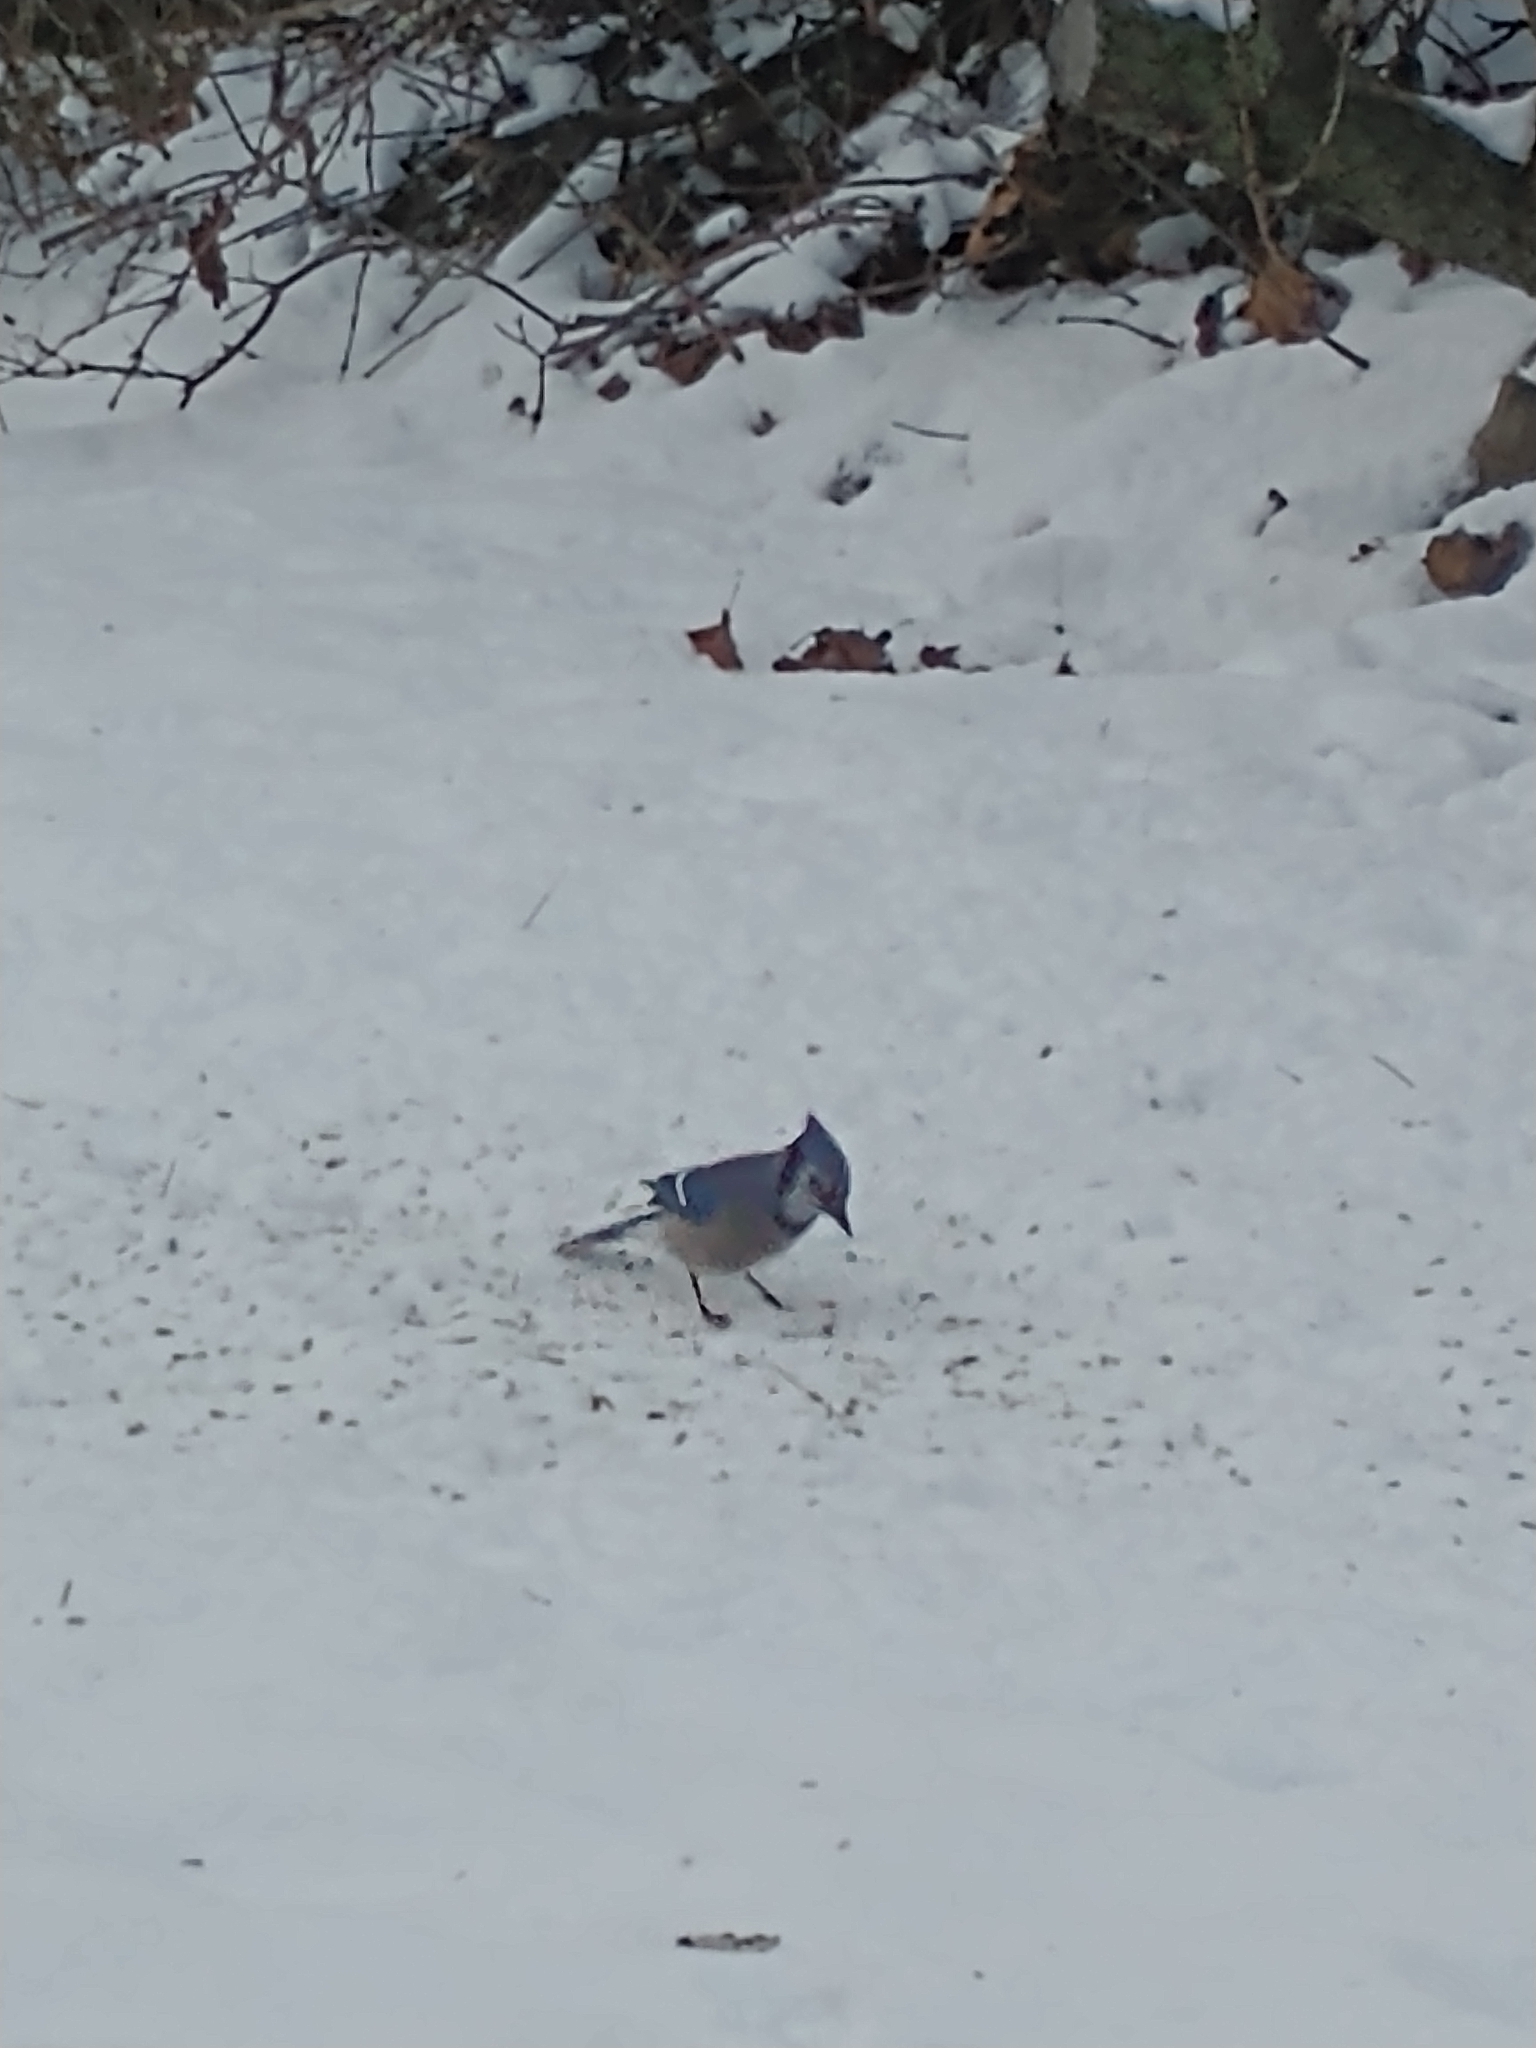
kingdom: Animalia
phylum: Chordata
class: Aves
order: Passeriformes
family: Corvidae
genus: Cyanocitta
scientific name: Cyanocitta cristata
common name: Blue jay
